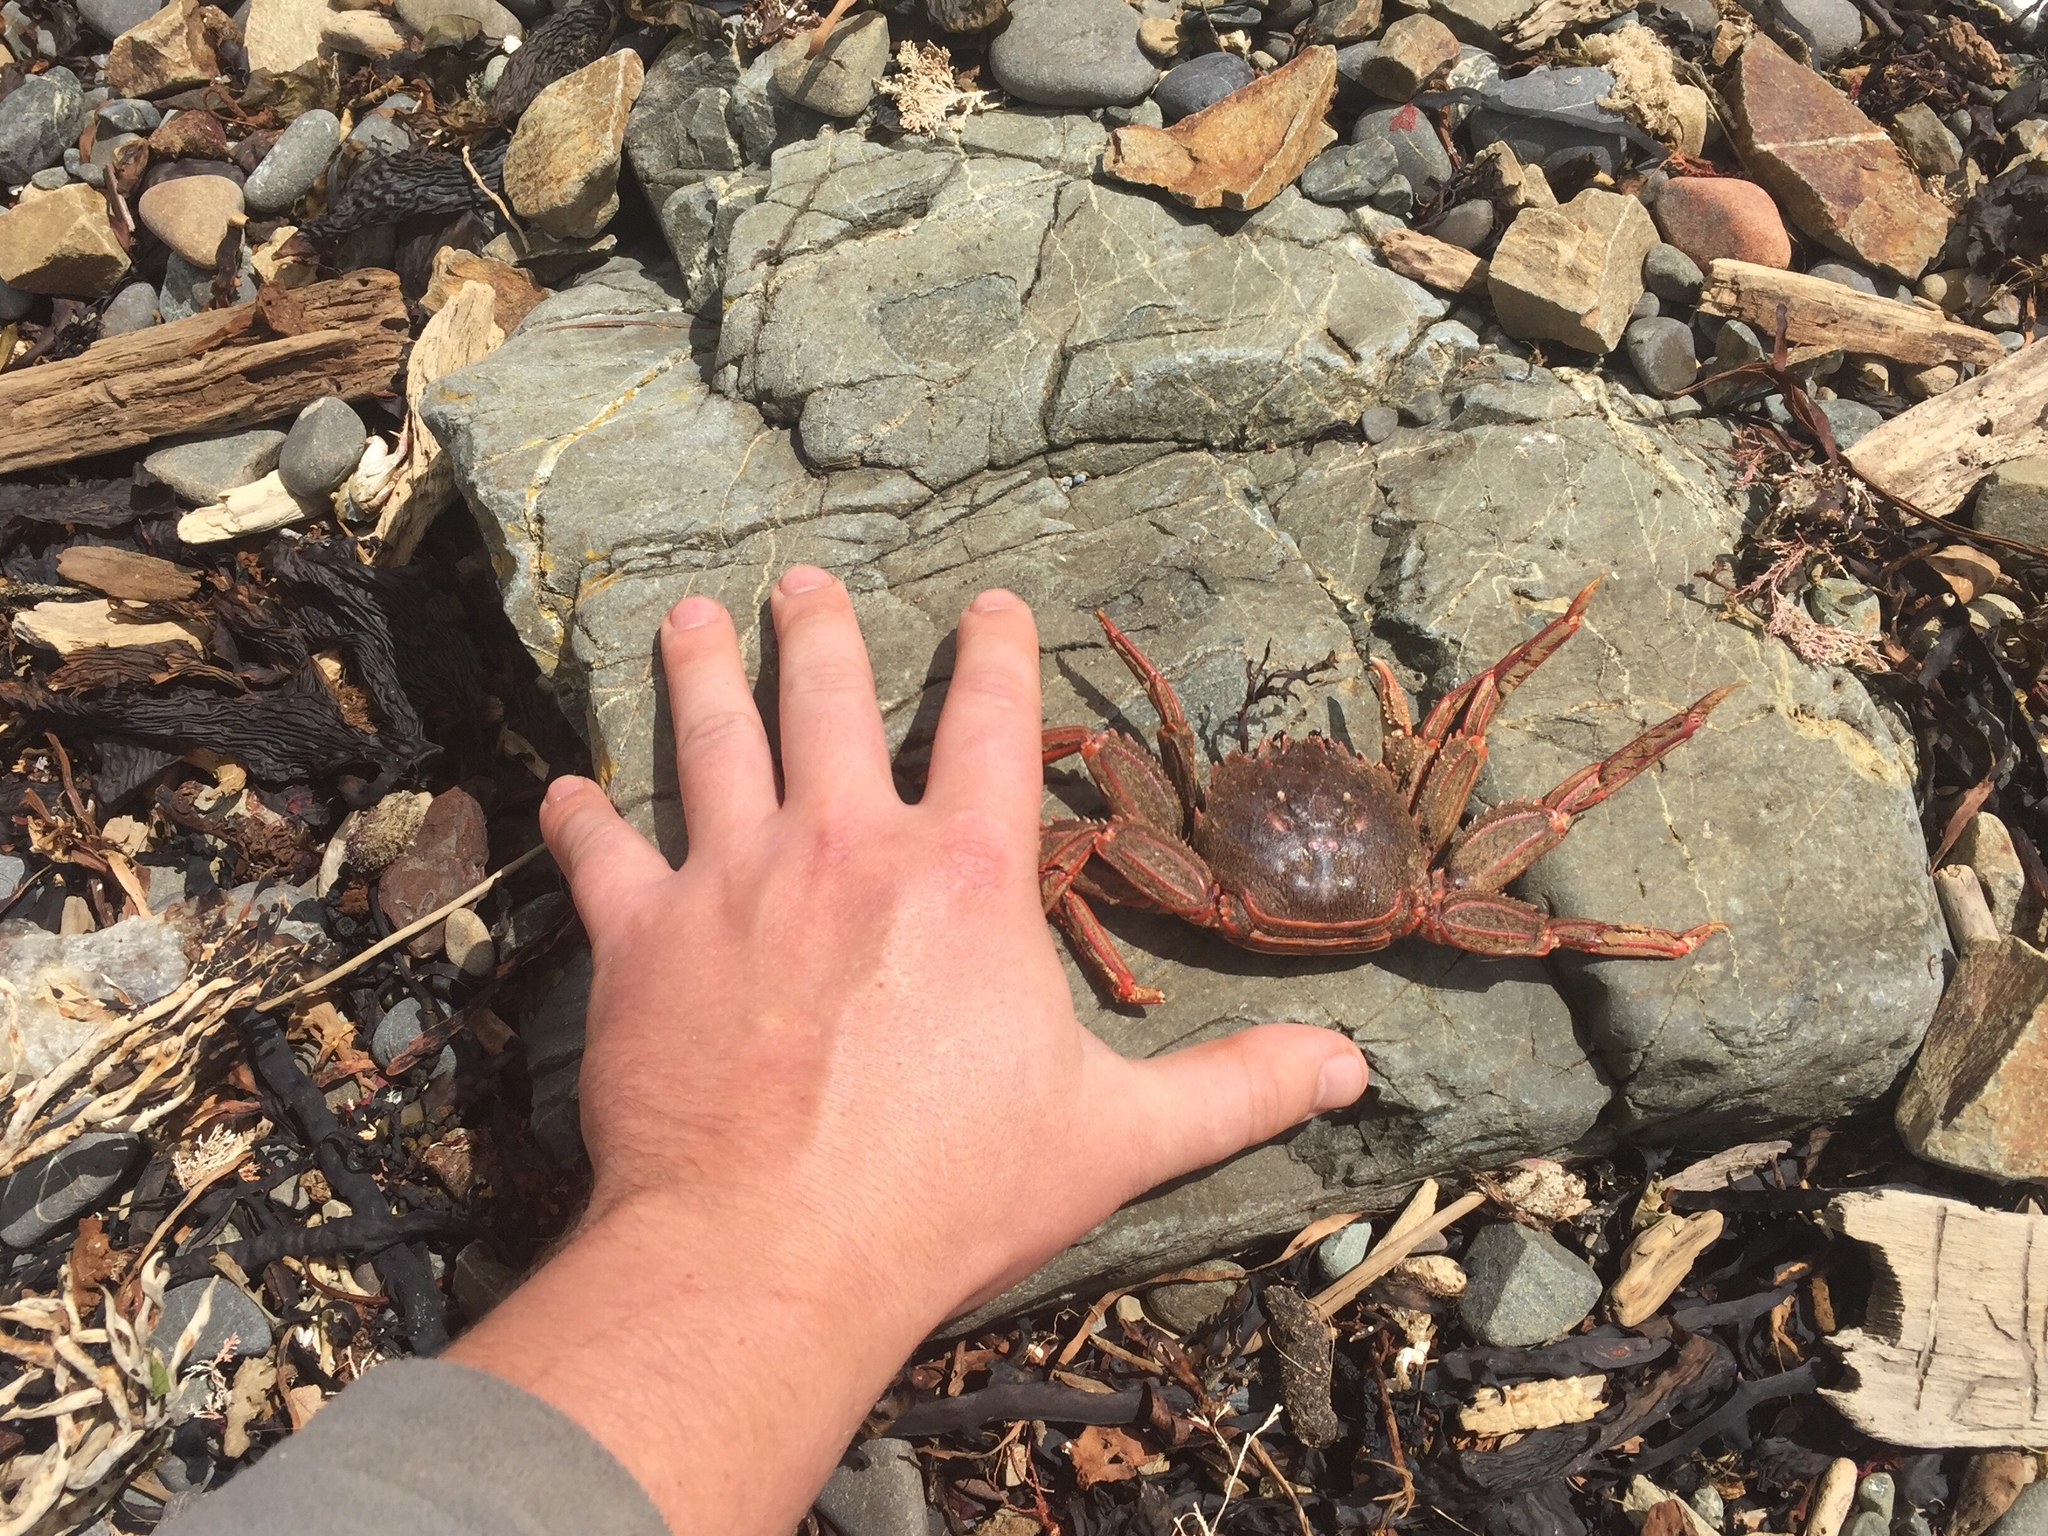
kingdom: Animalia
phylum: Arthropoda
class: Malacostraca
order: Decapoda
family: Plagusiidae
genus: Guinusia
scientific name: Guinusia chabrus
